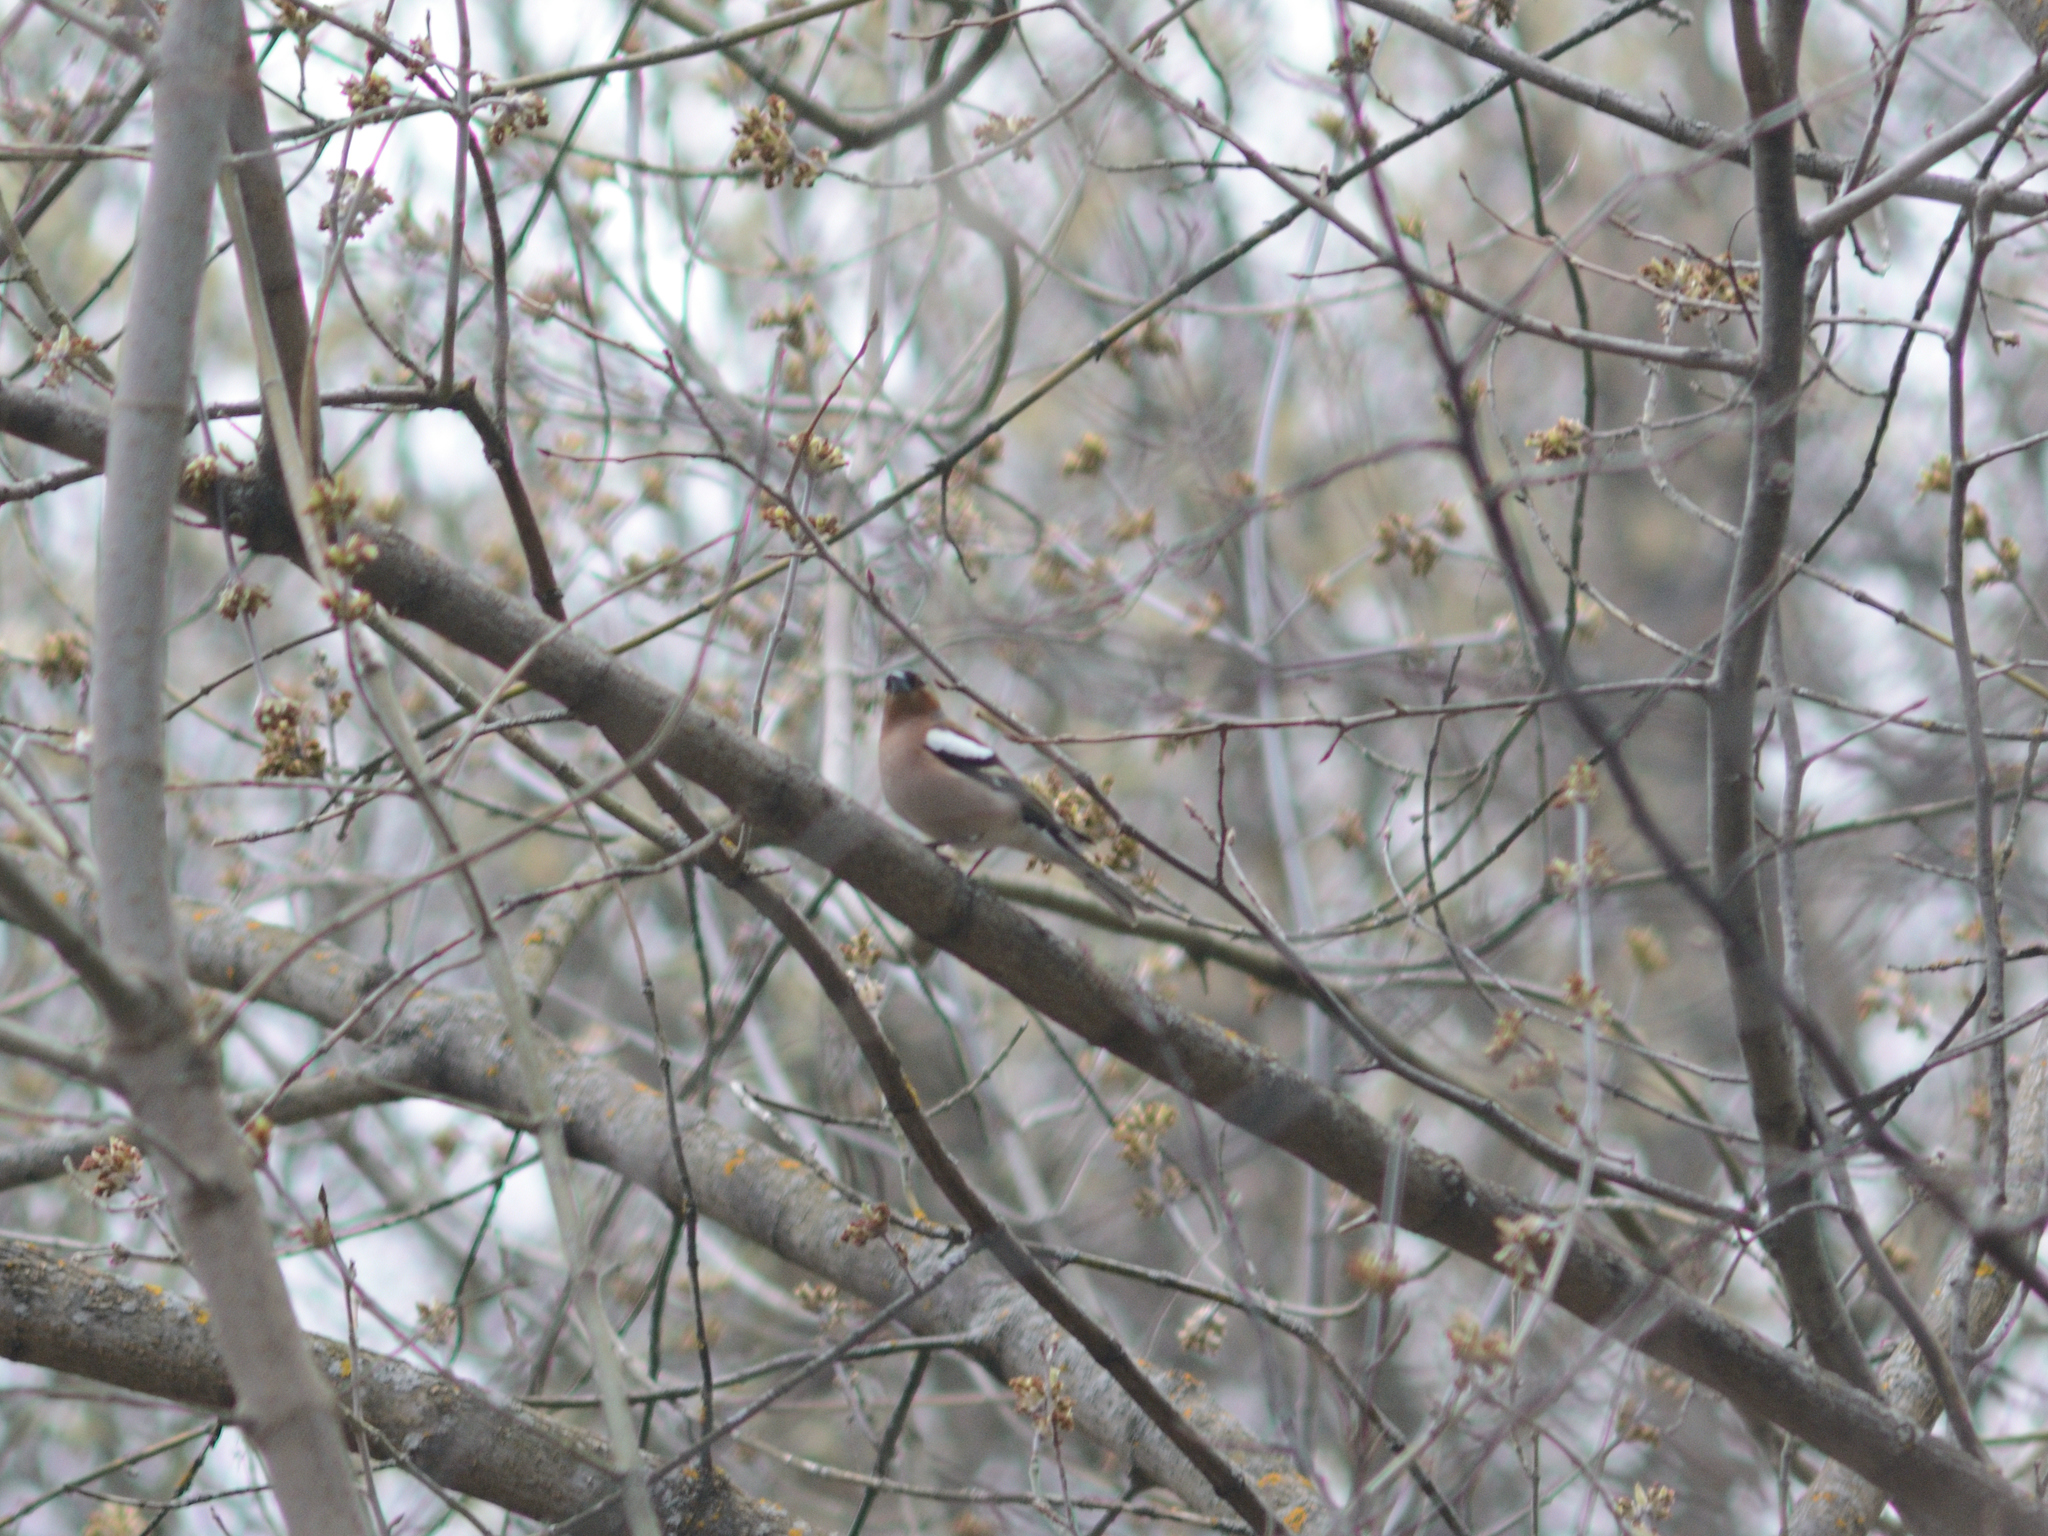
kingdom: Animalia
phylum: Chordata
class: Aves
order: Passeriformes
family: Fringillidae
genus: Fringilla
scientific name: Fringilla coelebs
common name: Common chaffinch
